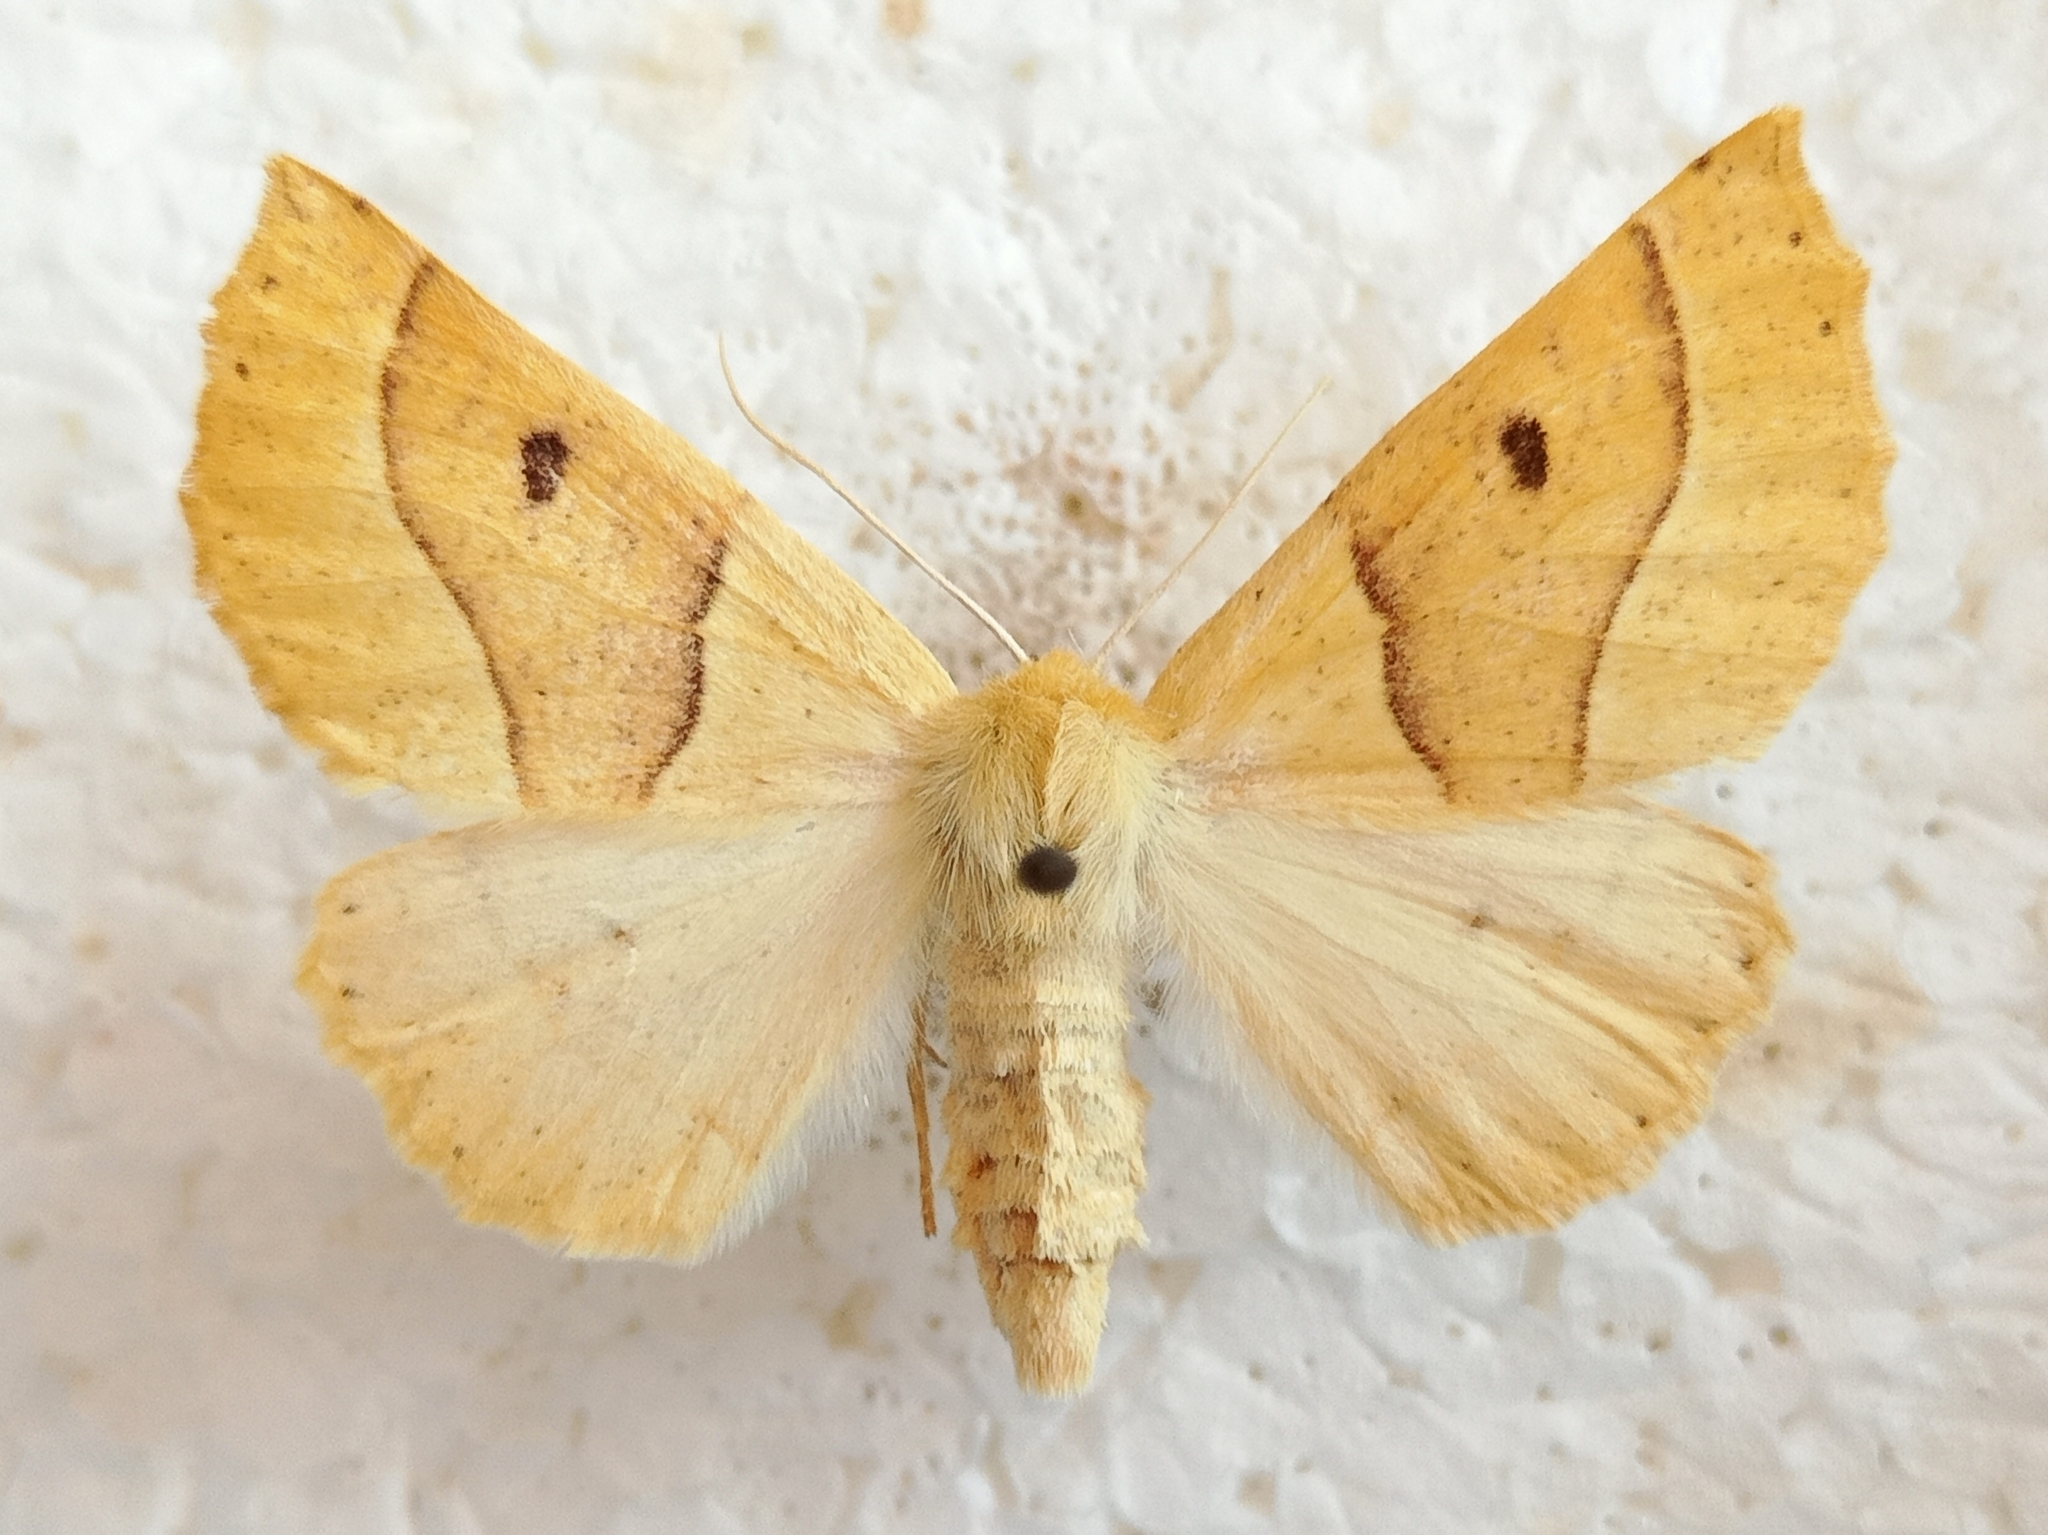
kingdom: Animalia
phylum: Arthropoda
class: Insecta
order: Lepidoptera
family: Geometridae
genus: Crocallis
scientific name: Crocallis elinguaria
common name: Scalloped oak
